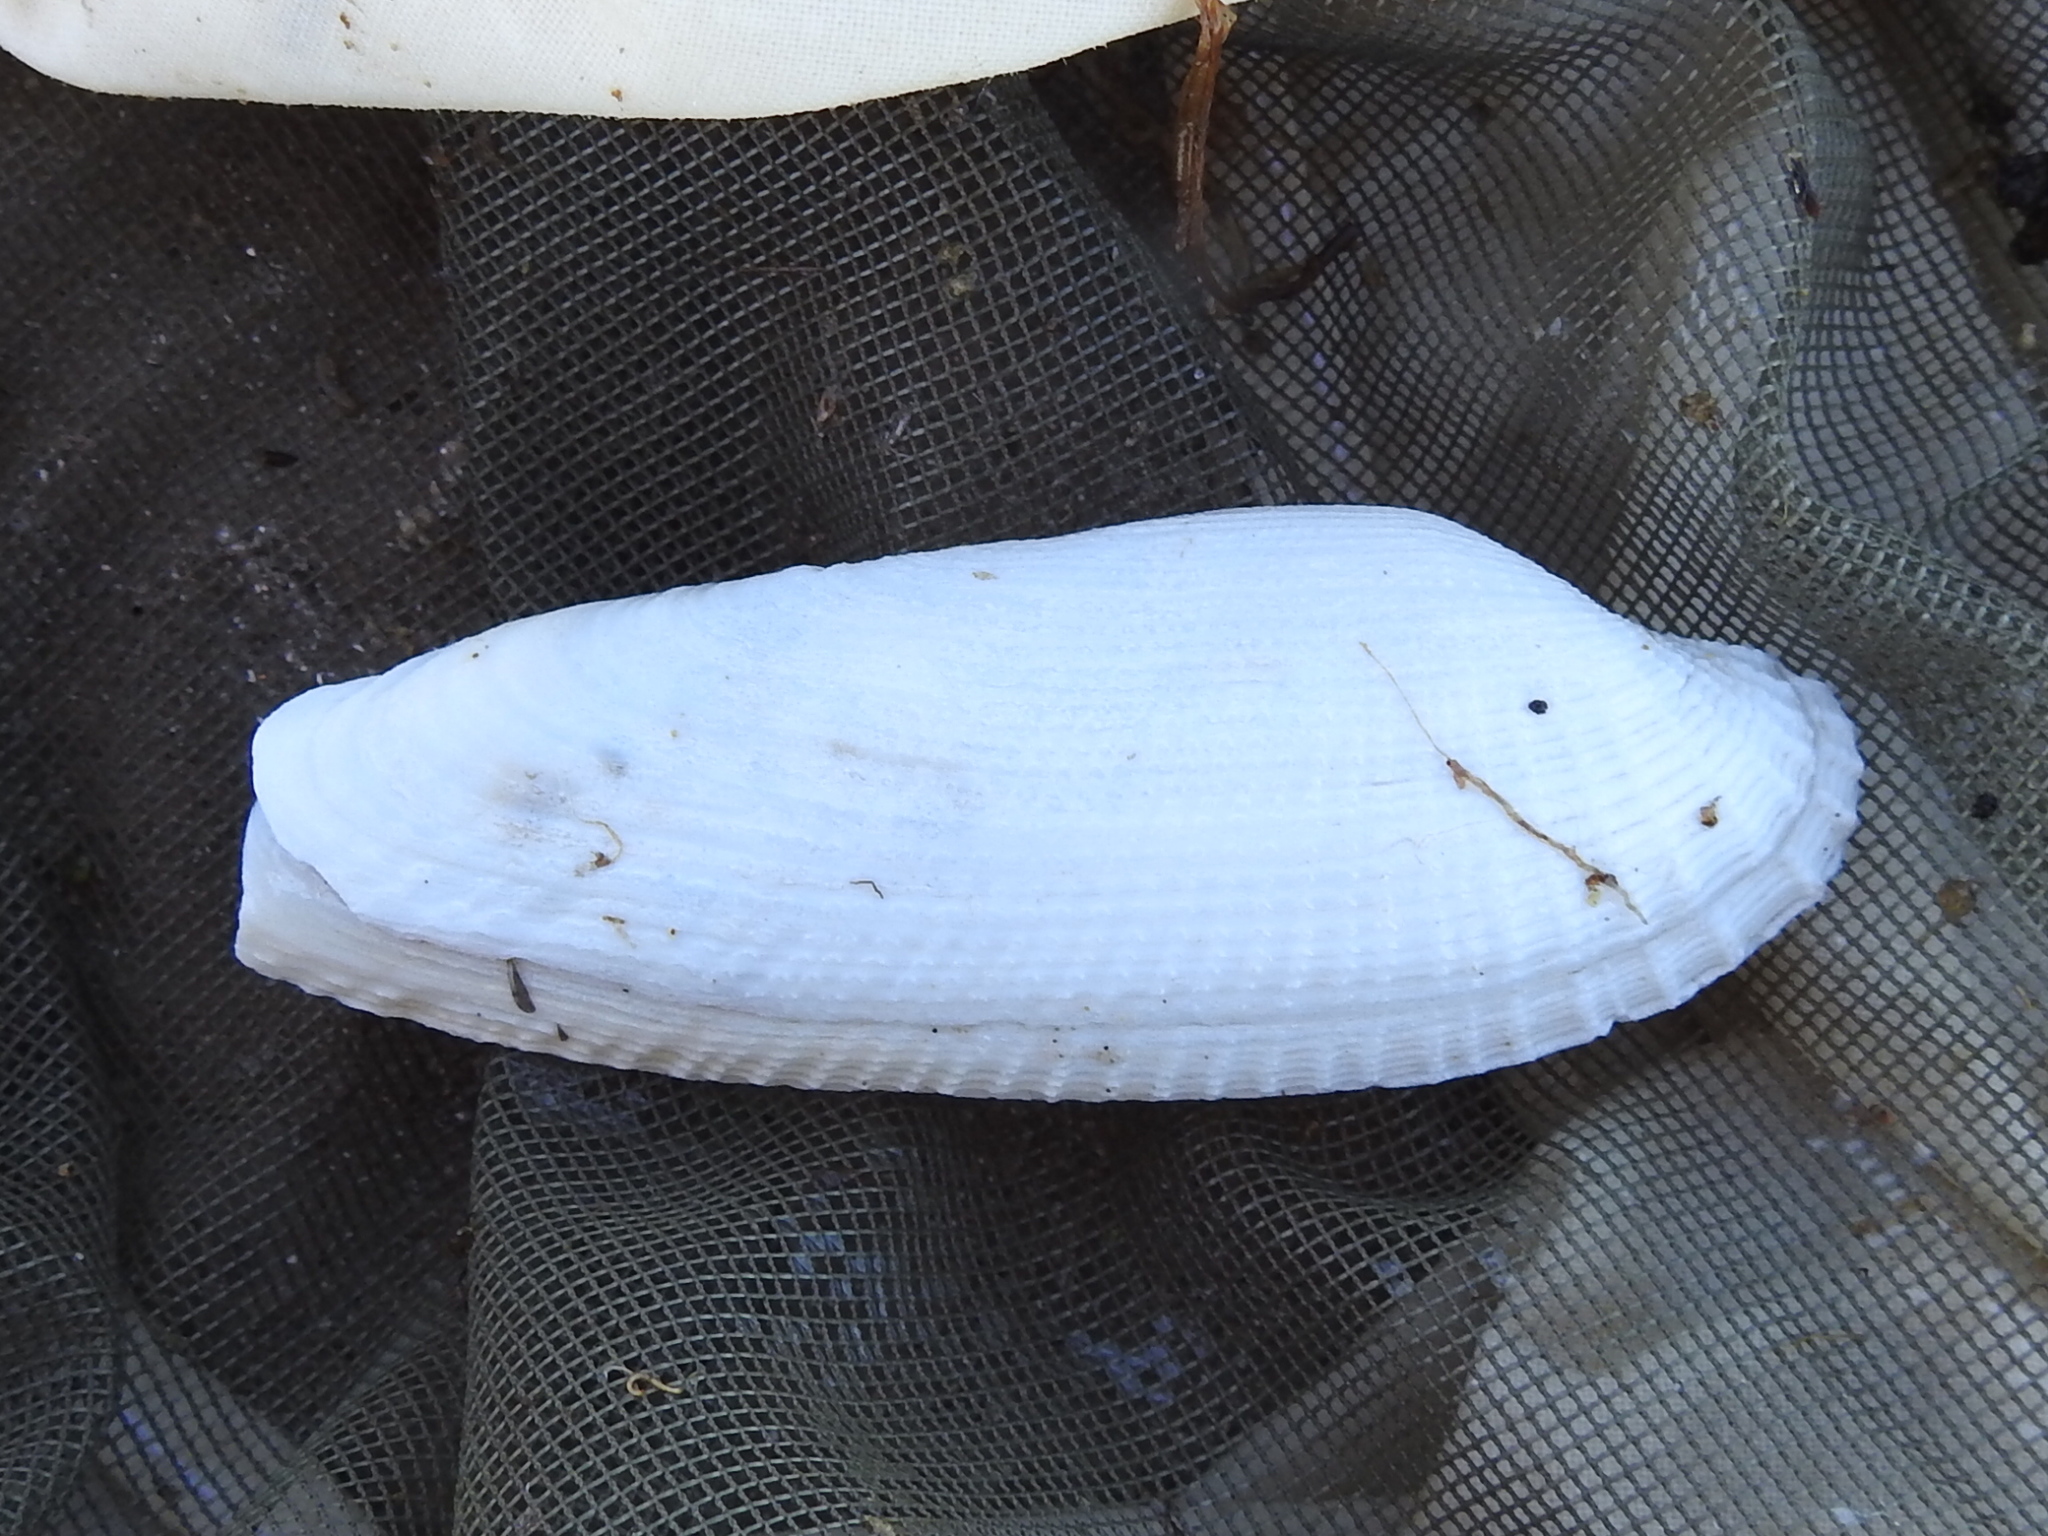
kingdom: Animalia
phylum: Mollusca
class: Bivalvia
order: Myida
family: Pholadidae
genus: Pholas
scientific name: Pholas campechiensis
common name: Campeche angel wing
